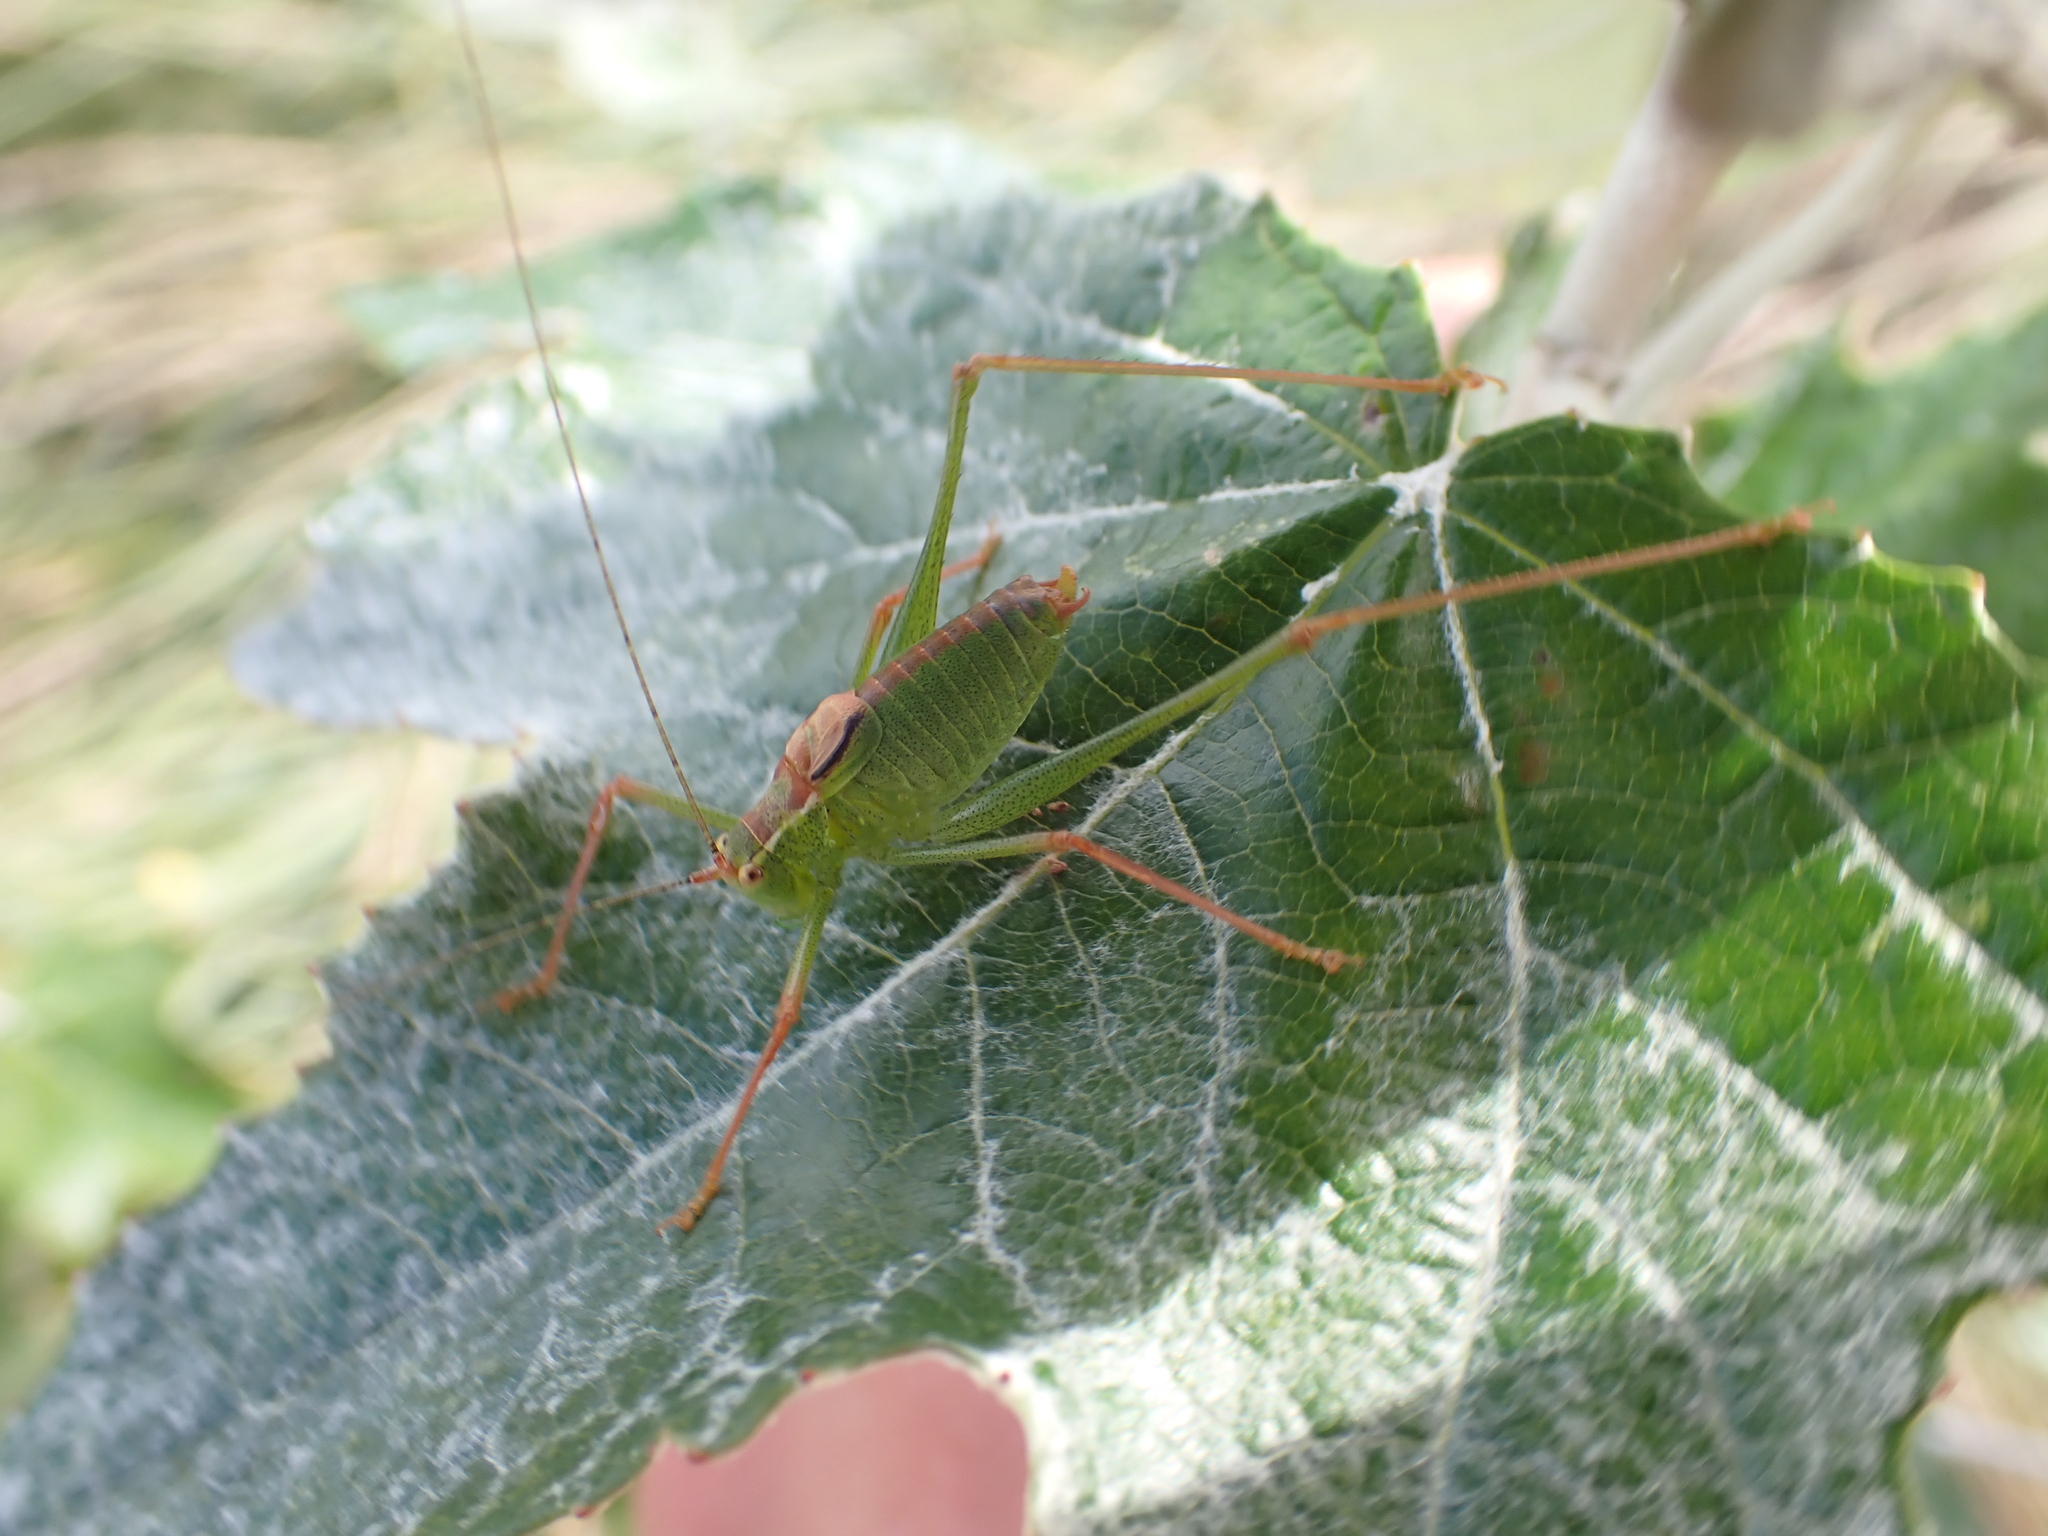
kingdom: Animalia
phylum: Arthropoda
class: Insecta
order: Orthoptera
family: Tettigoniidae
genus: Leptophyes
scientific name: Leptophyes punctatissima
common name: Speckled bush-cricket
